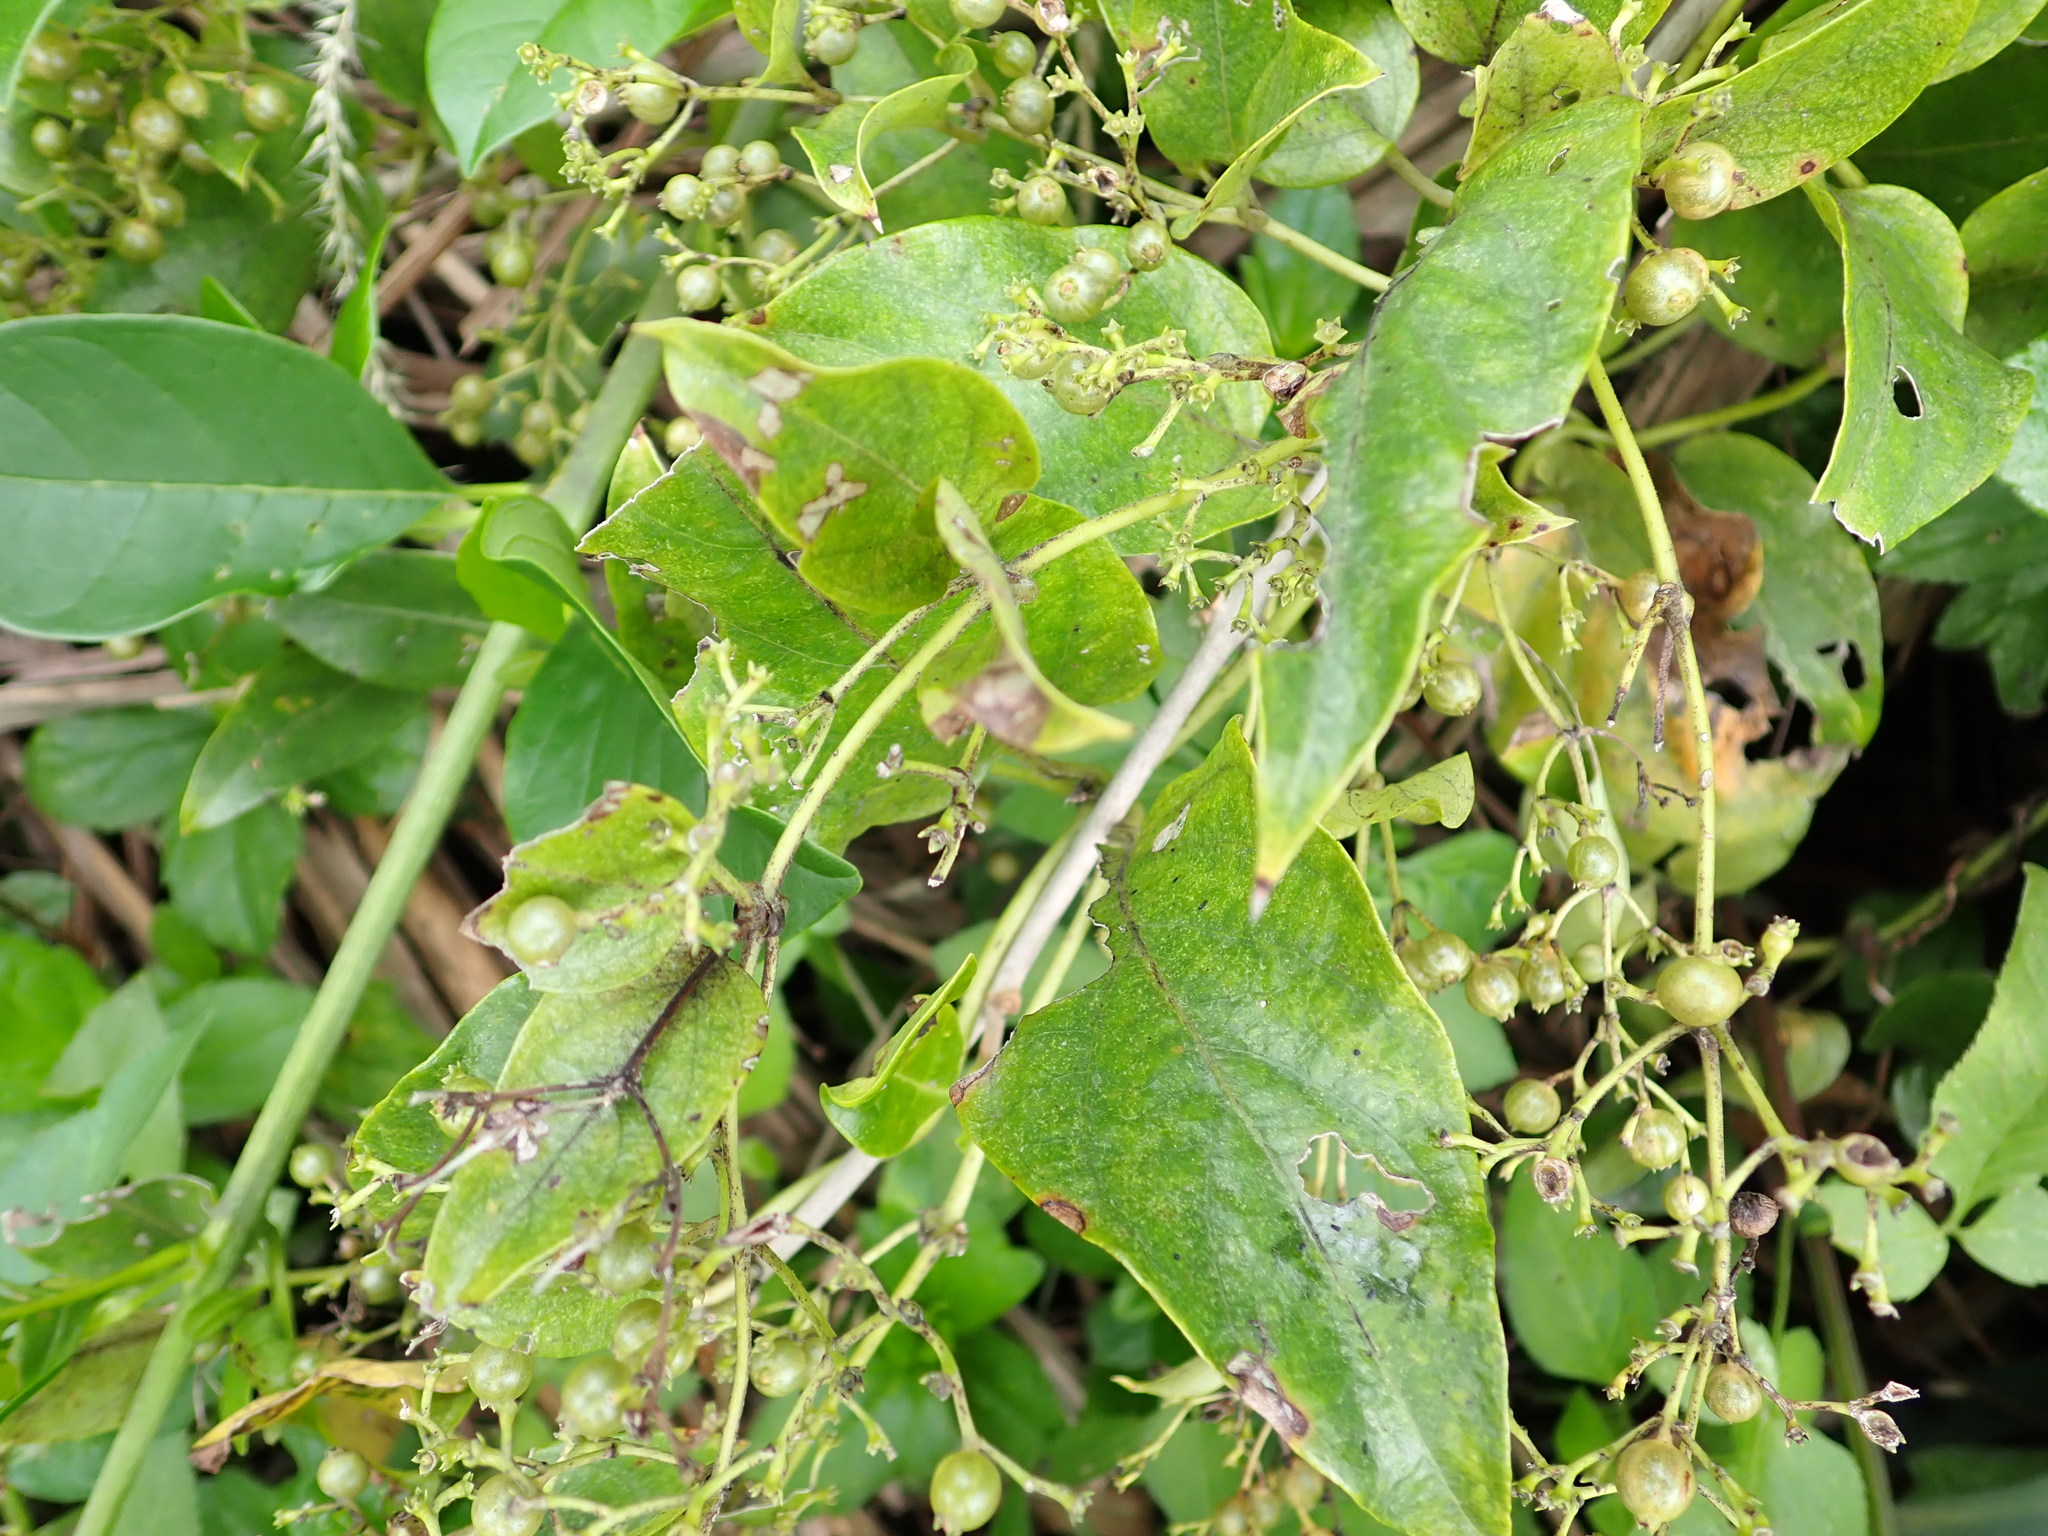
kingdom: Plantae
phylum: Tracheophyta
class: Magnoliopsida
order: Gentianales
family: Rubiaceae
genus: Paederia
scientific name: Paederia foetida
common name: Stinkvine
